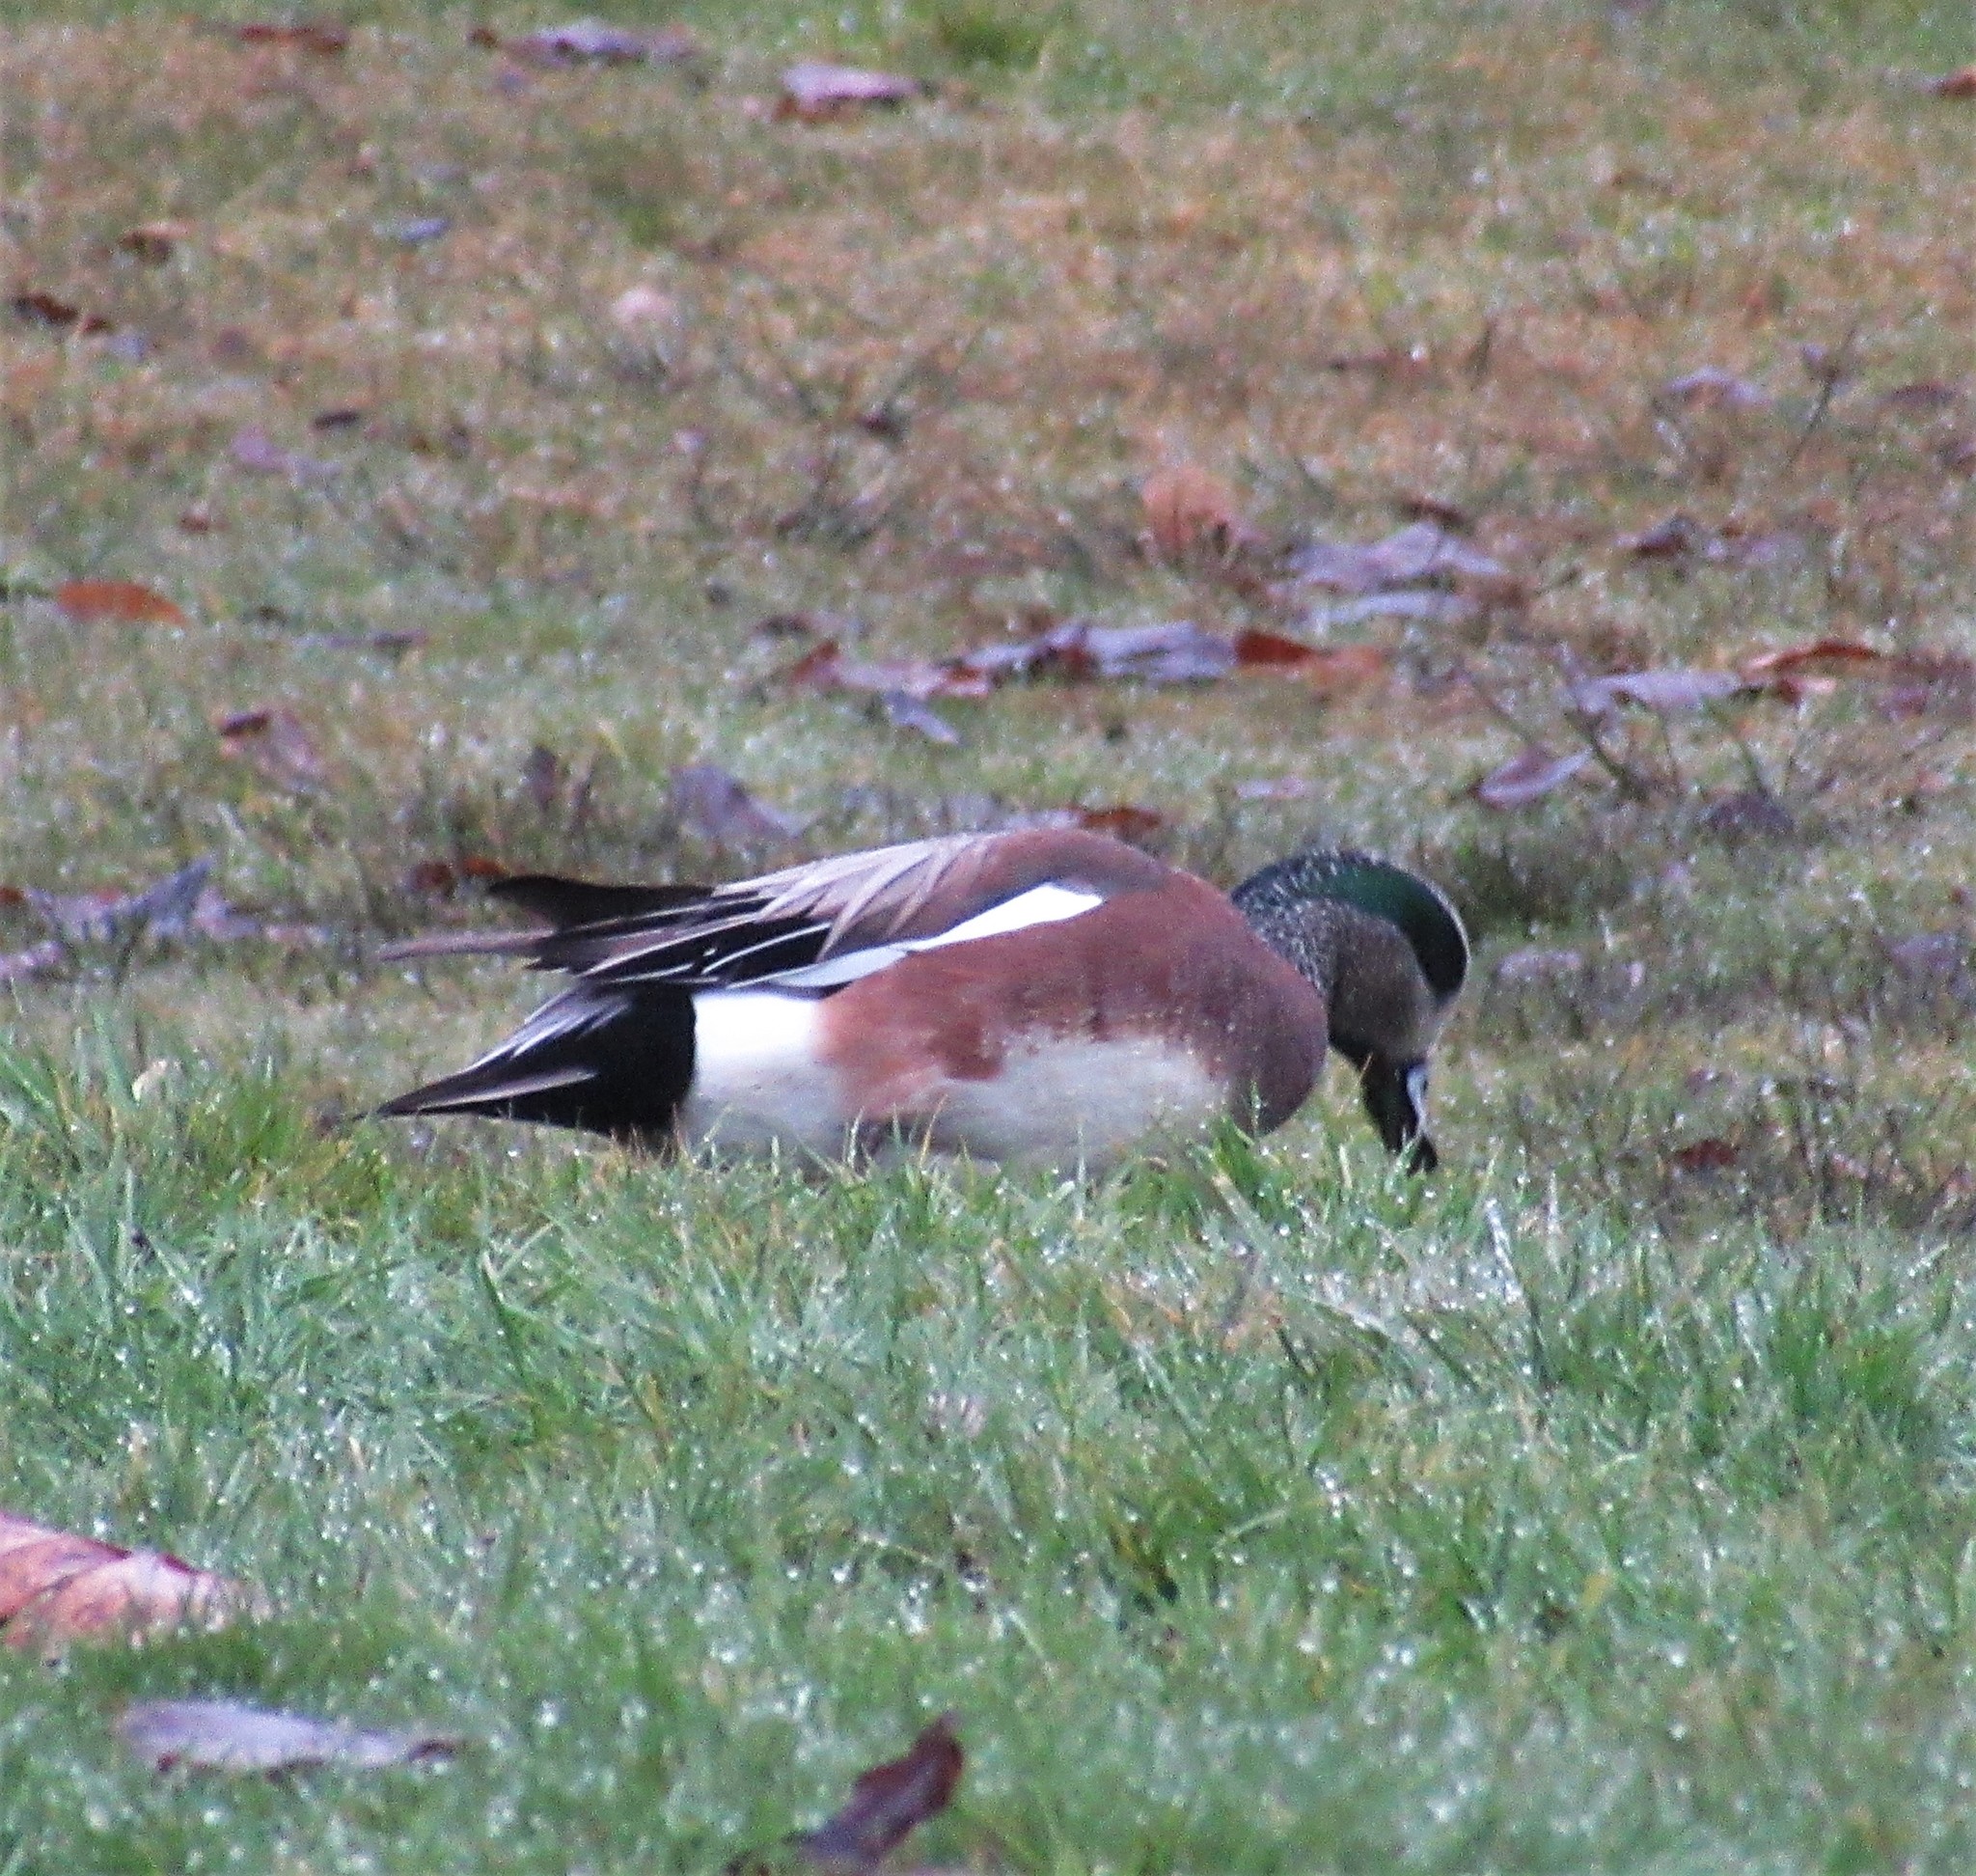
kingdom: Animalia
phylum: Chordata
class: Aves
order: Anseriformes
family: Anatidae
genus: Mareca
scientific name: Mareca americana
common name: American wigeon
